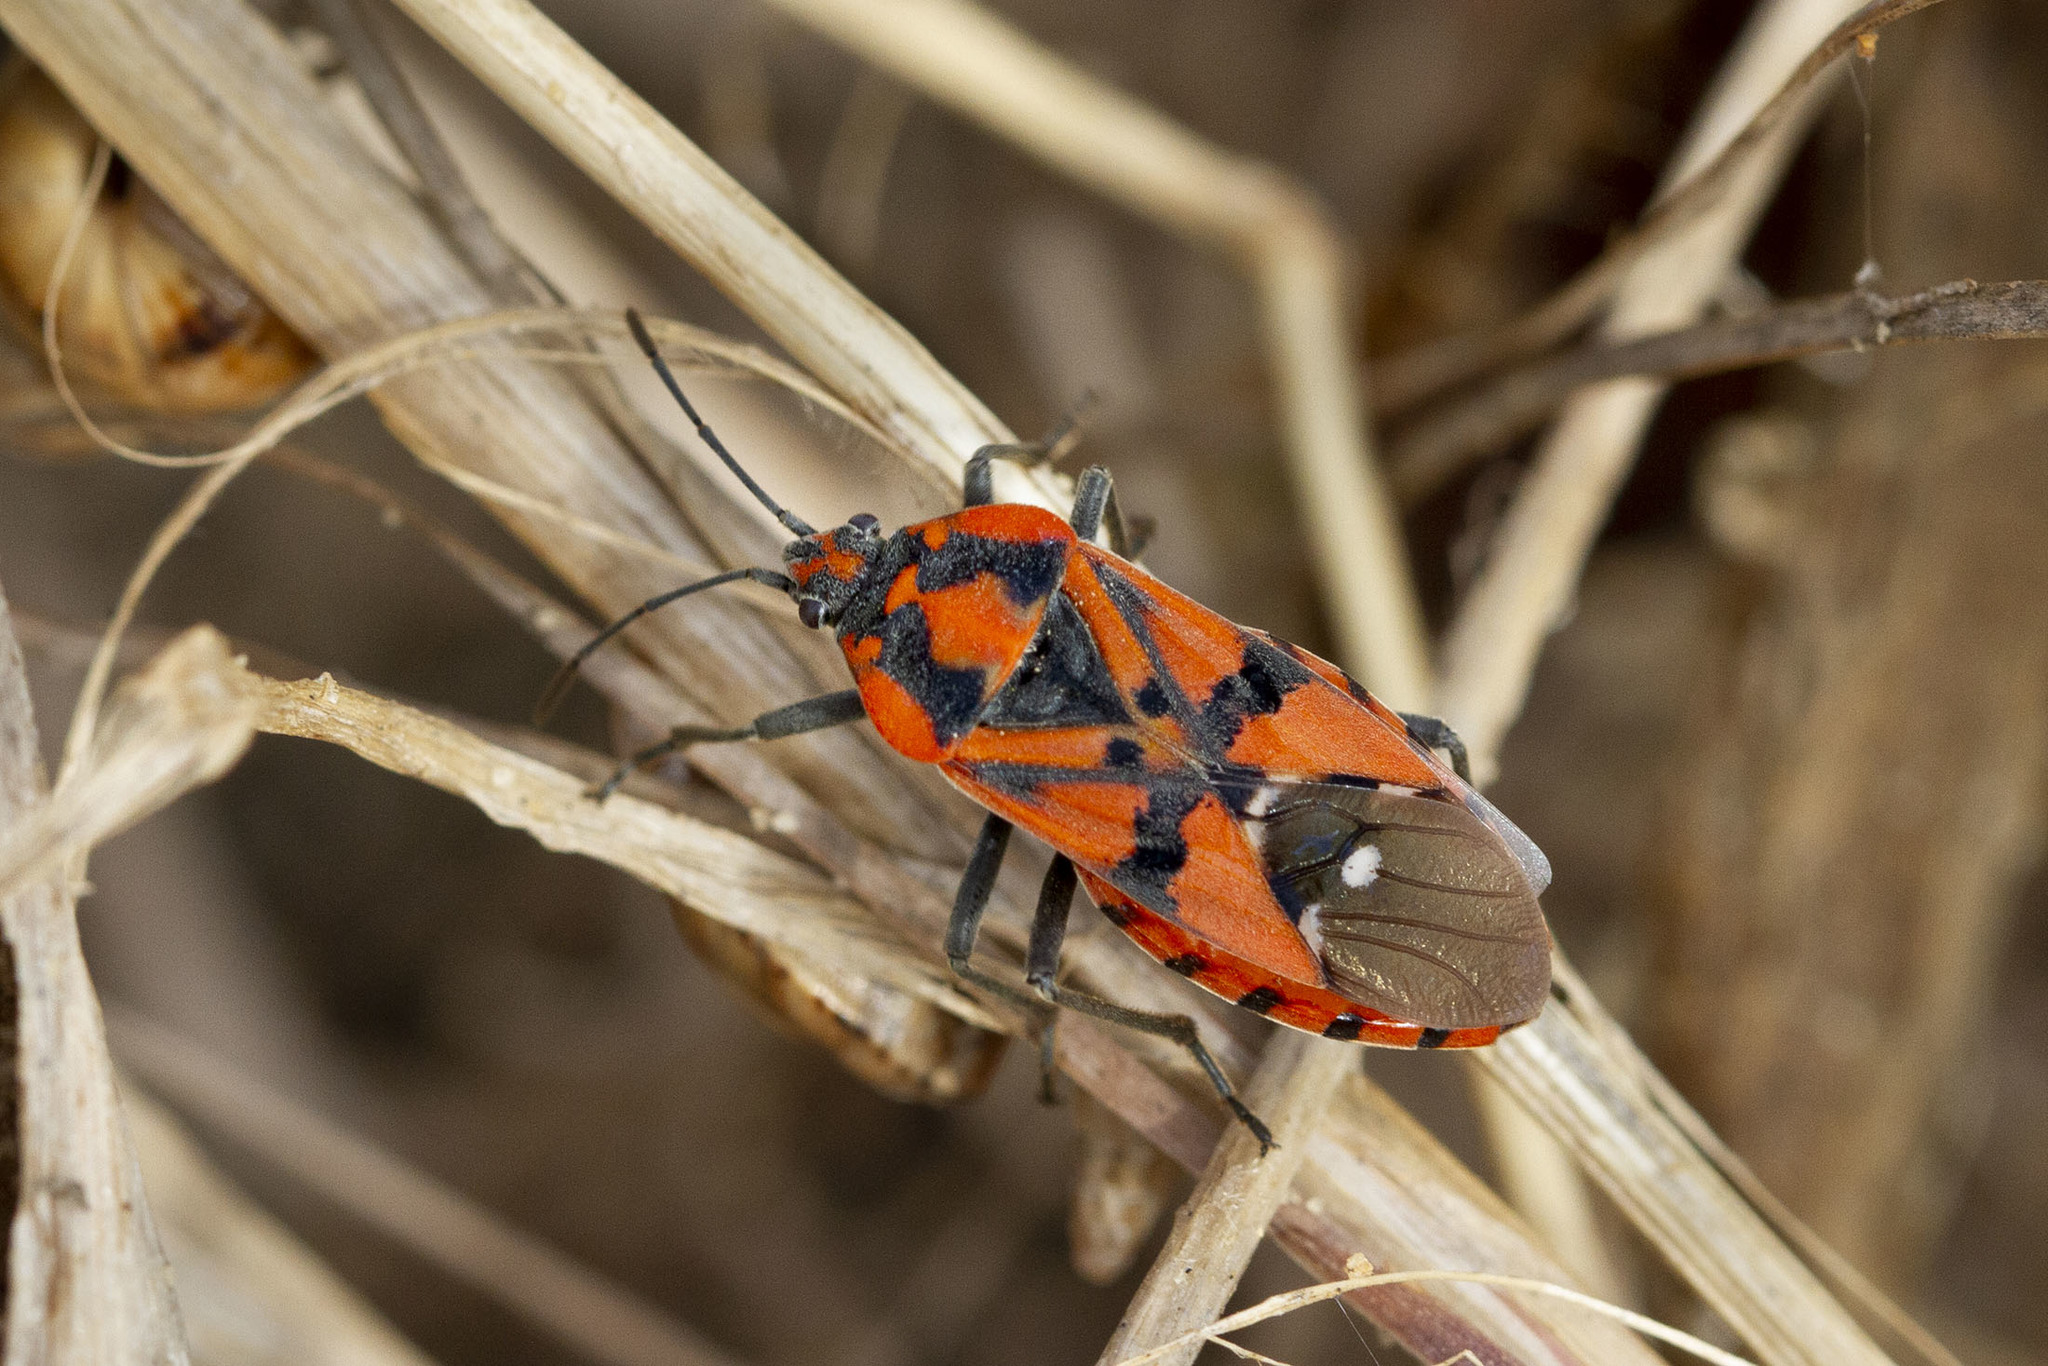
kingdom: Animalia
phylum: Arthropoda
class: Insecta
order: Hemiptera
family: Lygaeidae
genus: Spilostethus
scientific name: Spilostethus pandurus
